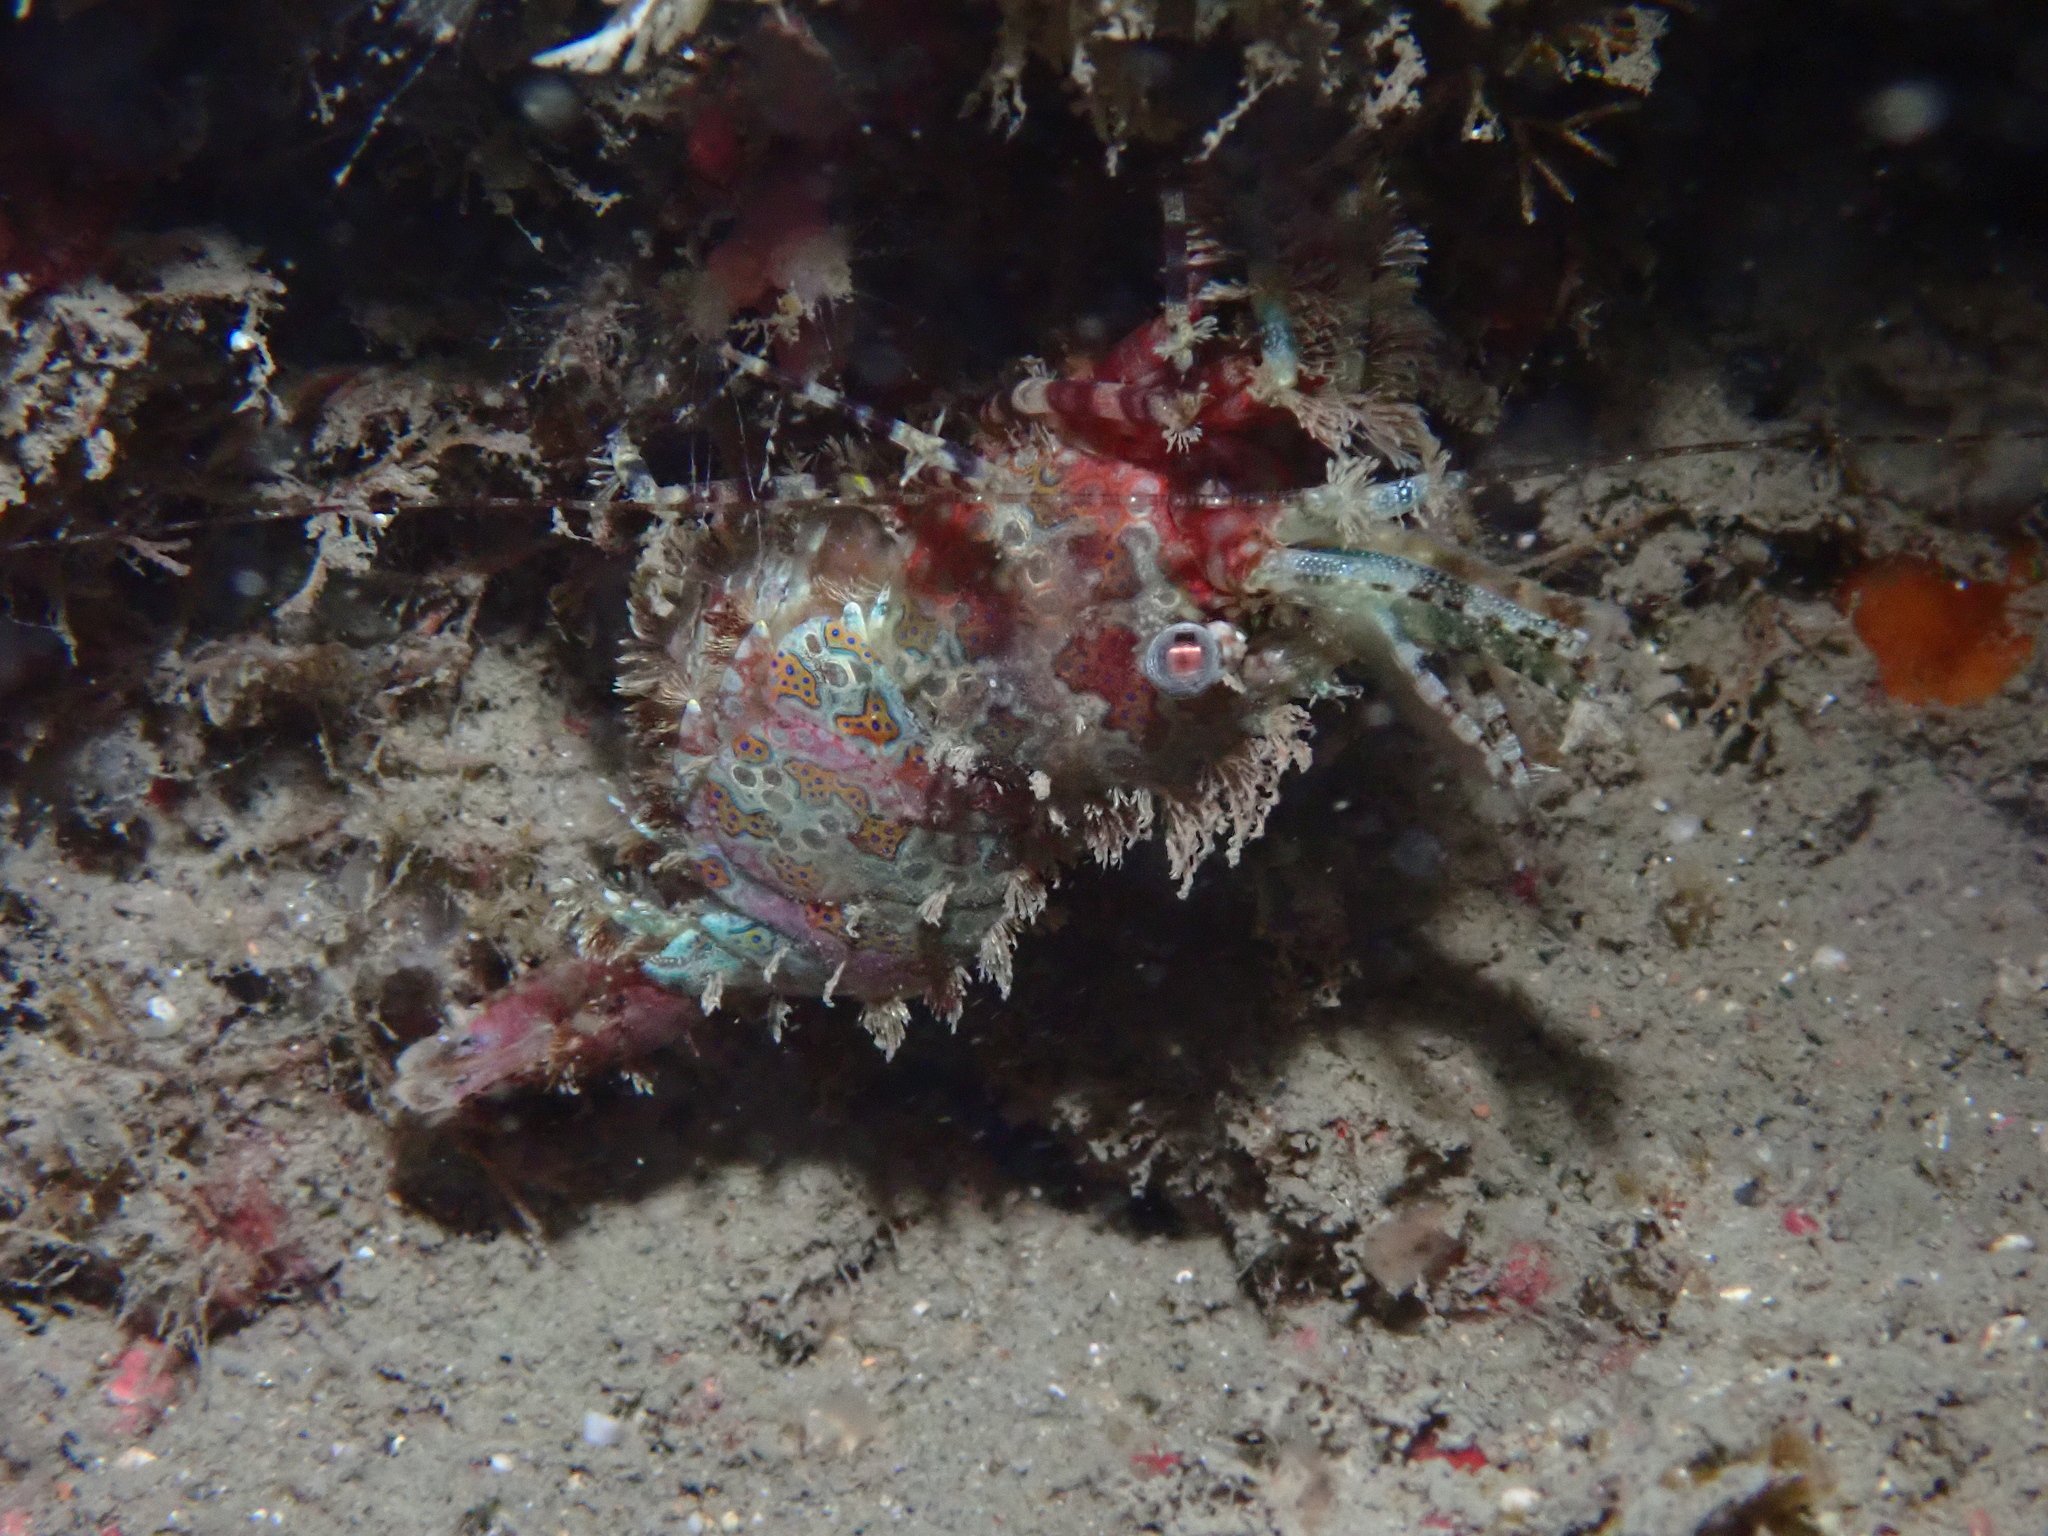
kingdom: Animalia
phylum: Arthropoda
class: Malacostraca
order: Decapoda
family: Hippolytidae
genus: Saron
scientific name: Saron marmoratus
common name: Common marble shrimp
